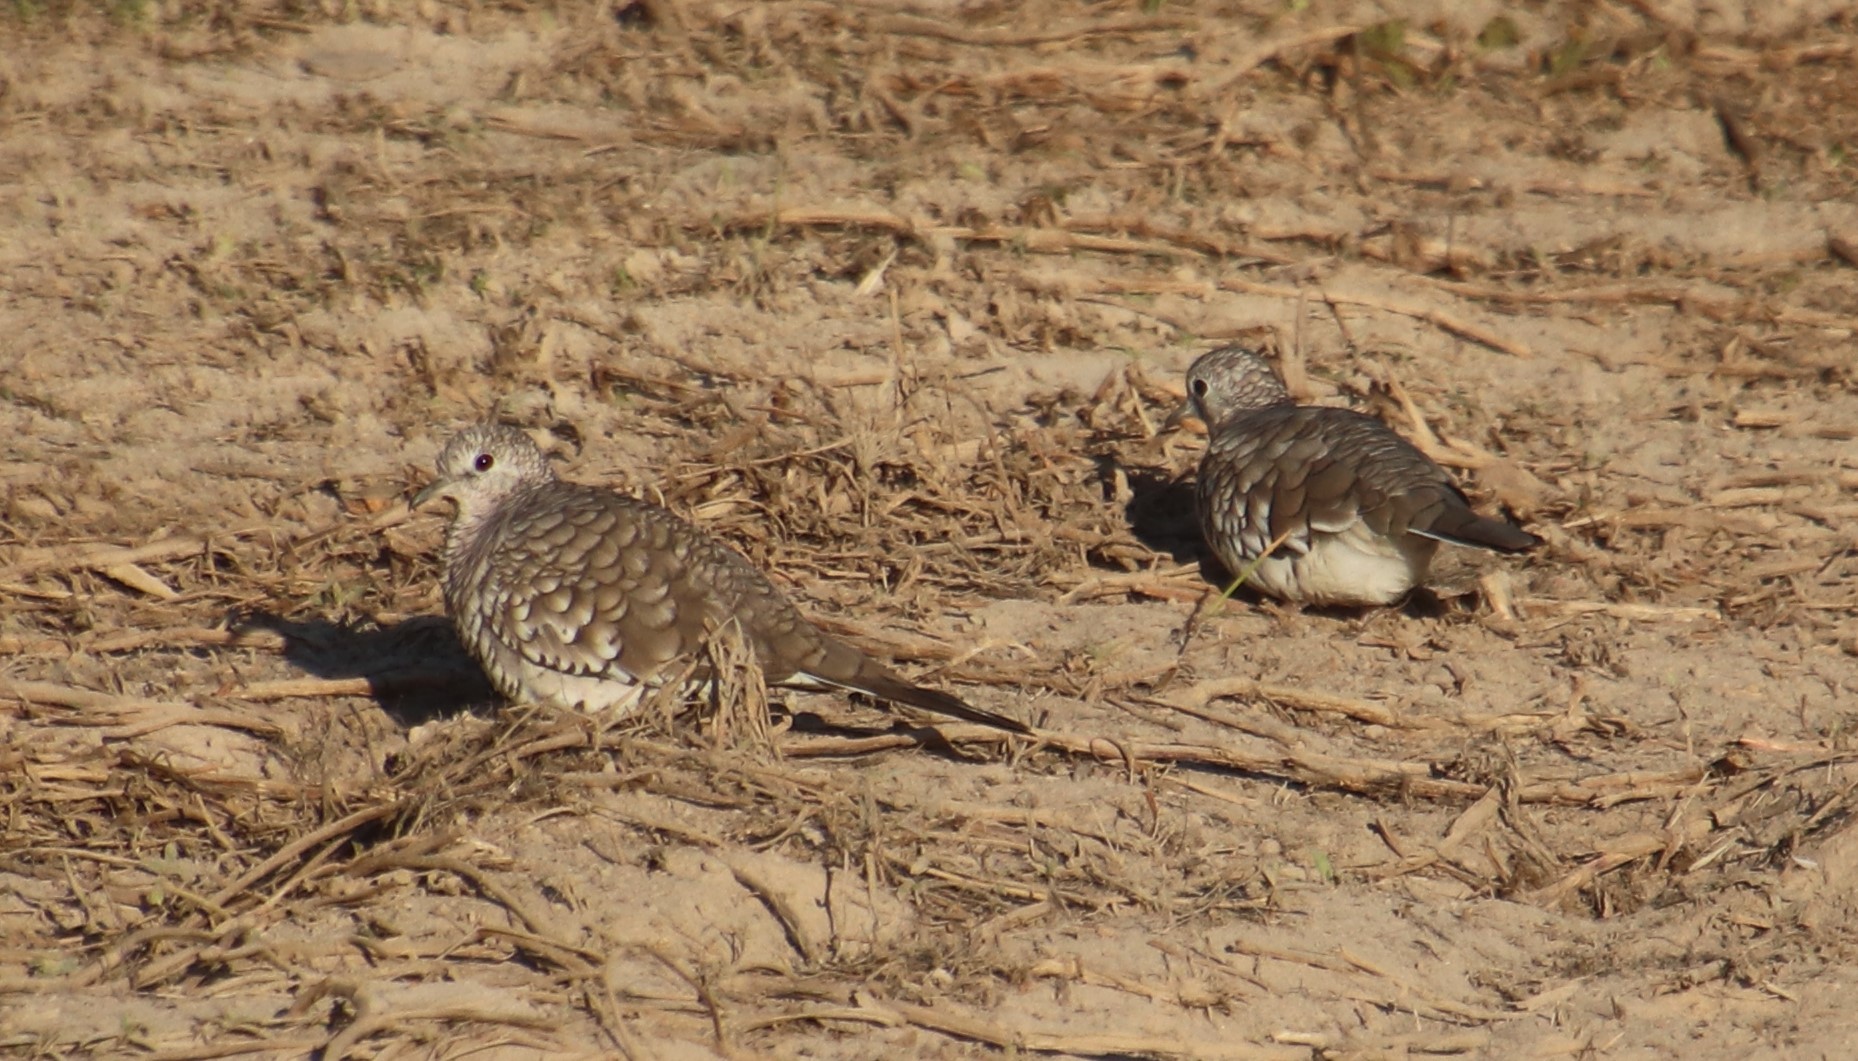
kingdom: Animalia
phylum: Chordata
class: Aves
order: Columbiformes
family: Columbidae
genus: Columbina
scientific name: Columbina squammata
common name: Scaled dove
